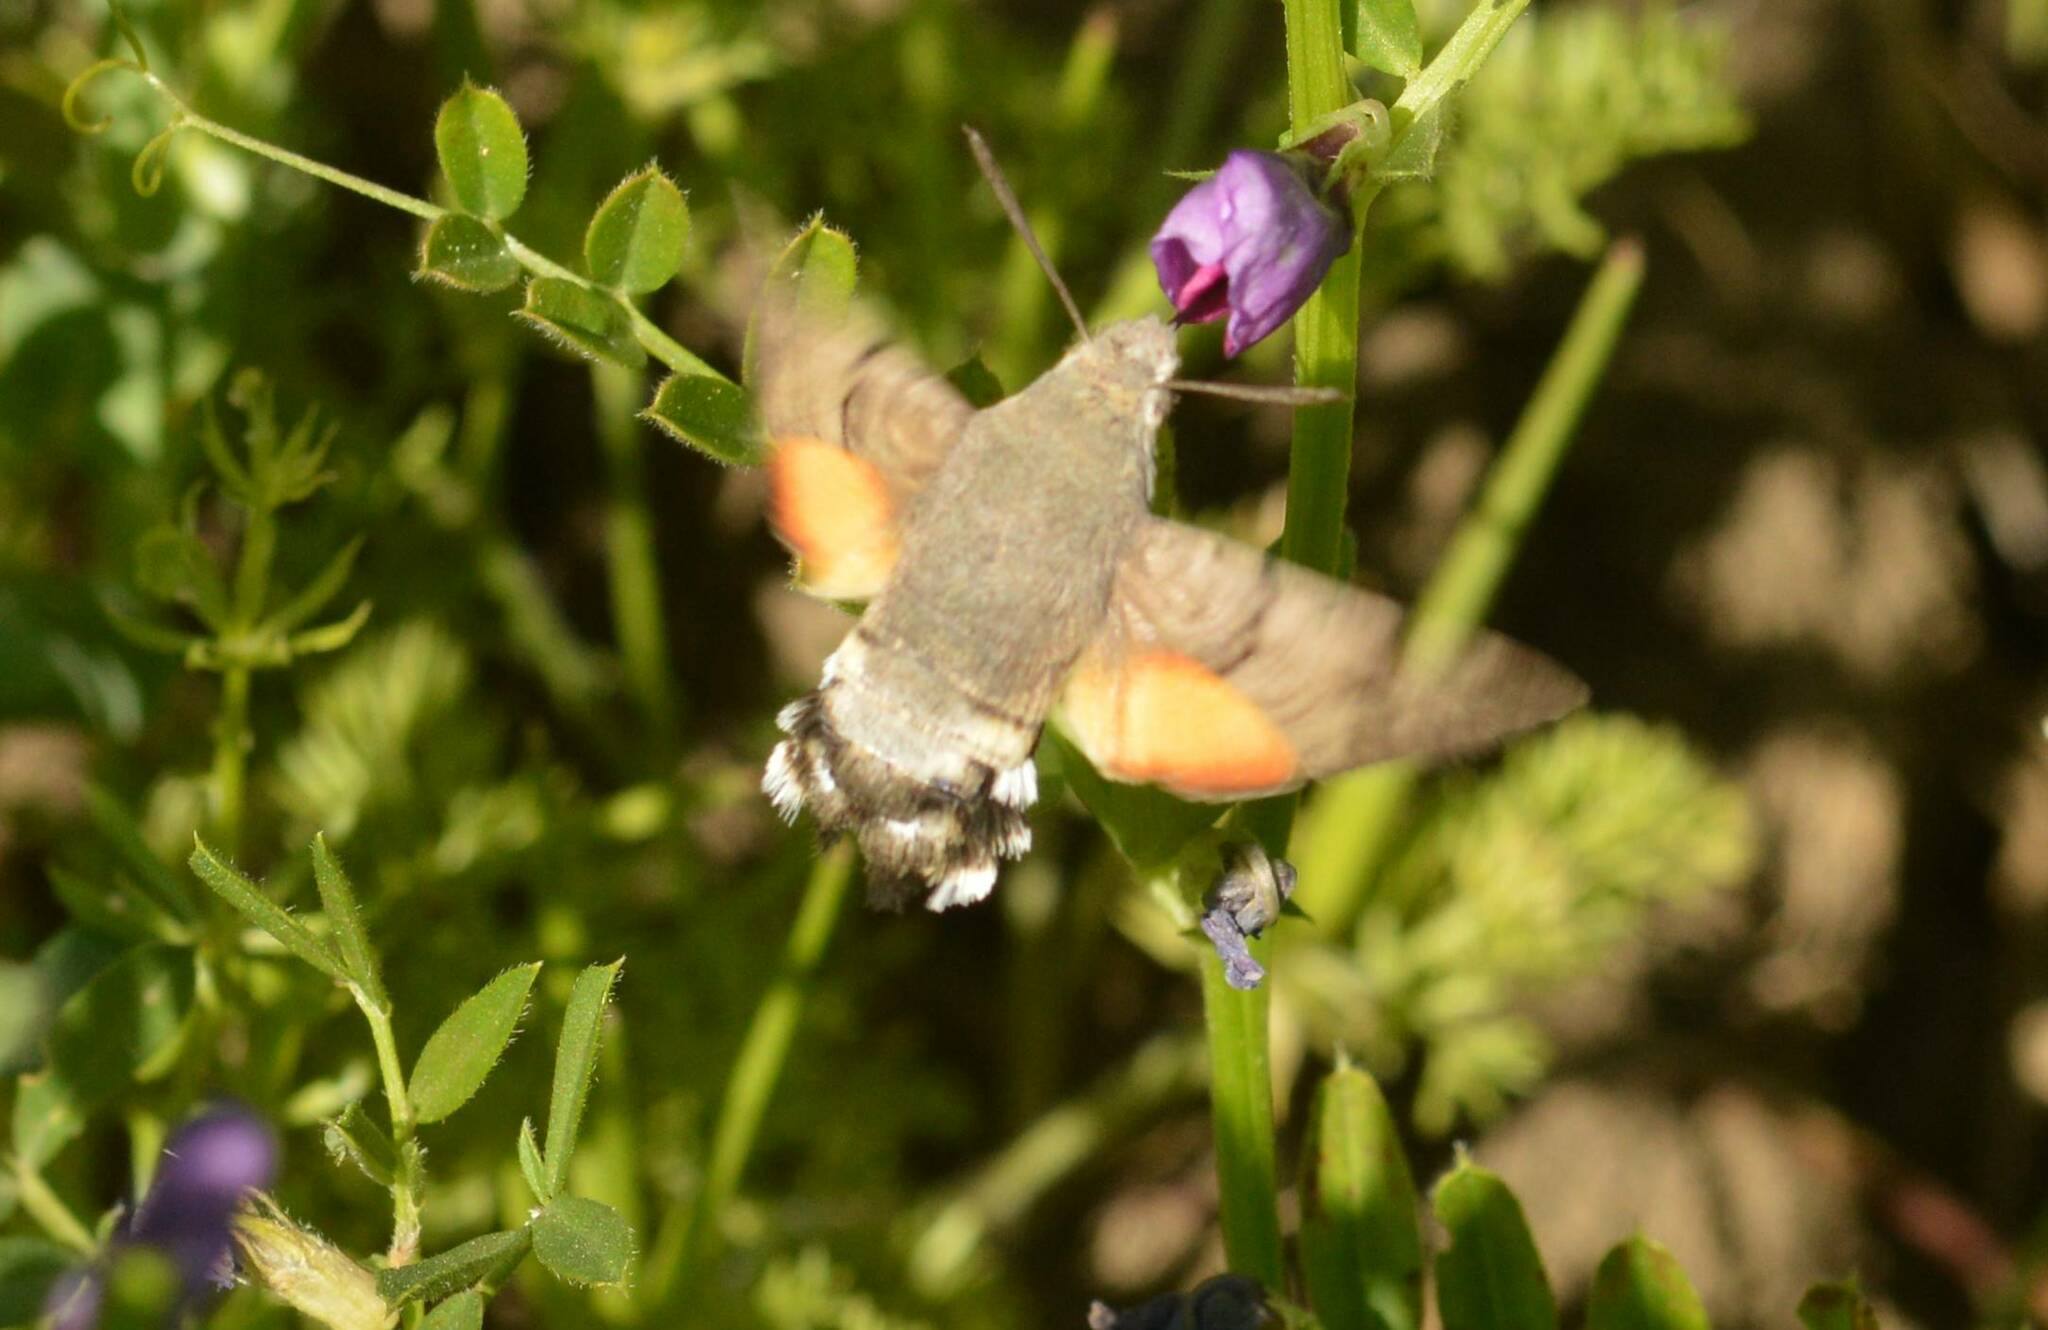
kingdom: Animalia
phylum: Arthropoda
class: Insecta
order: Lepidoptera
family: Sphingidae
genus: Macroglossum
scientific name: Macroglossum stellatarum
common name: Humming-bird hawk-moth
